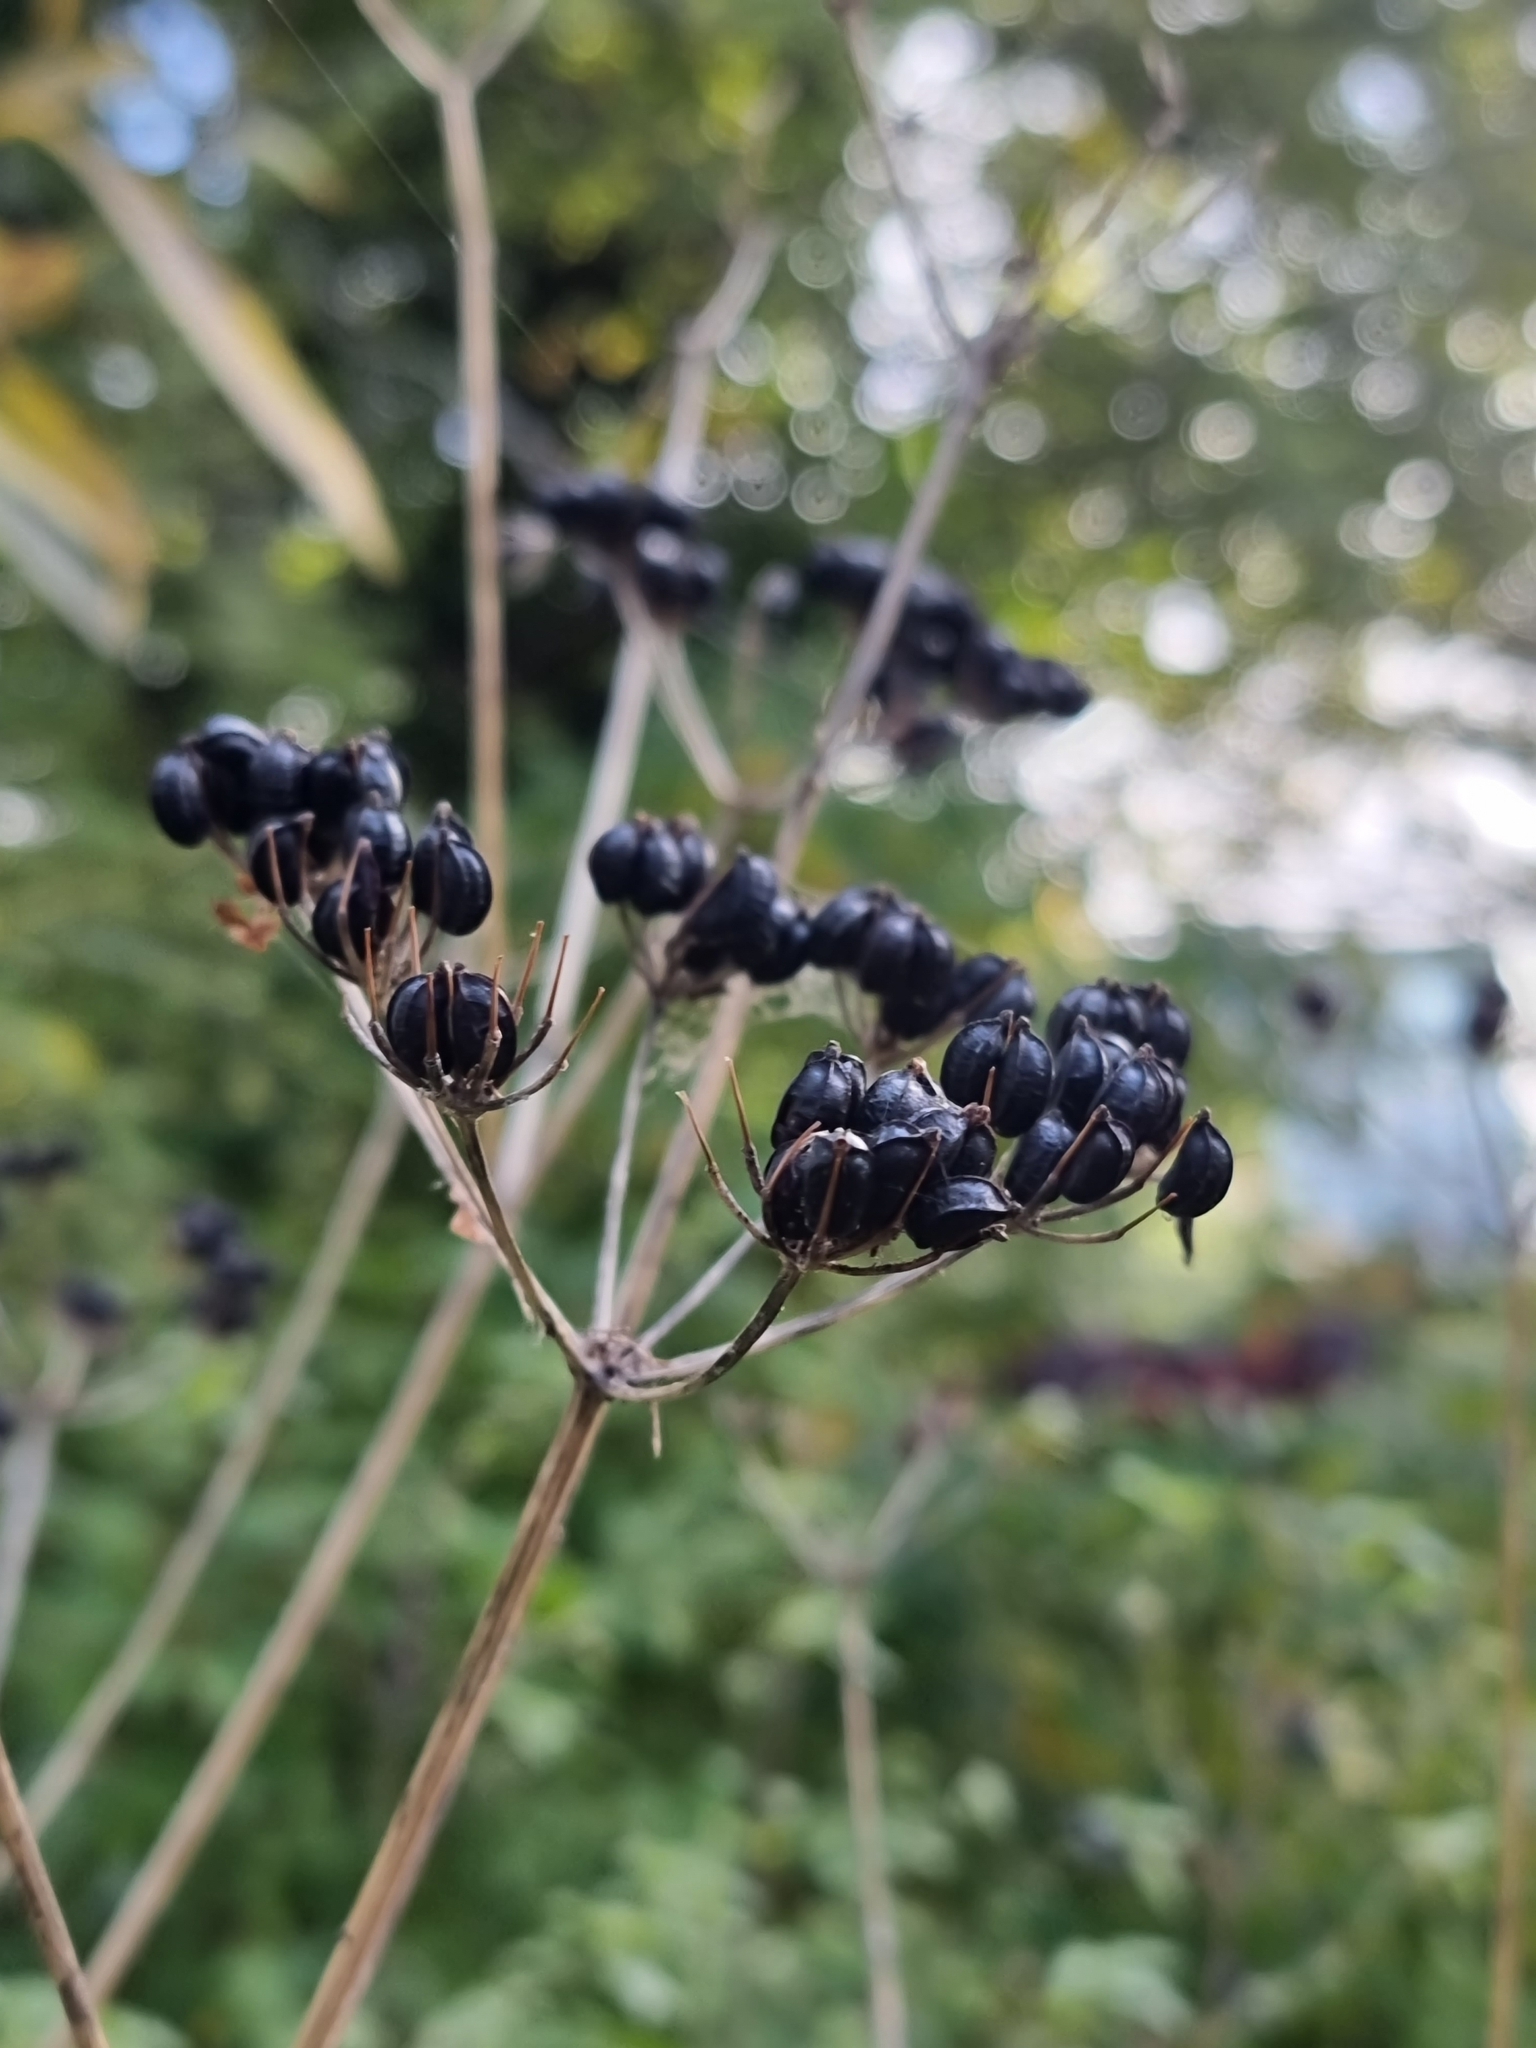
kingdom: Plantae
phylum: Tracheophyta
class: Magnoliopsida
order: Apiales
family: Apiaceae
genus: Smyrnium
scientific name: Smyrnium olusatrum
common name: Alexanders
